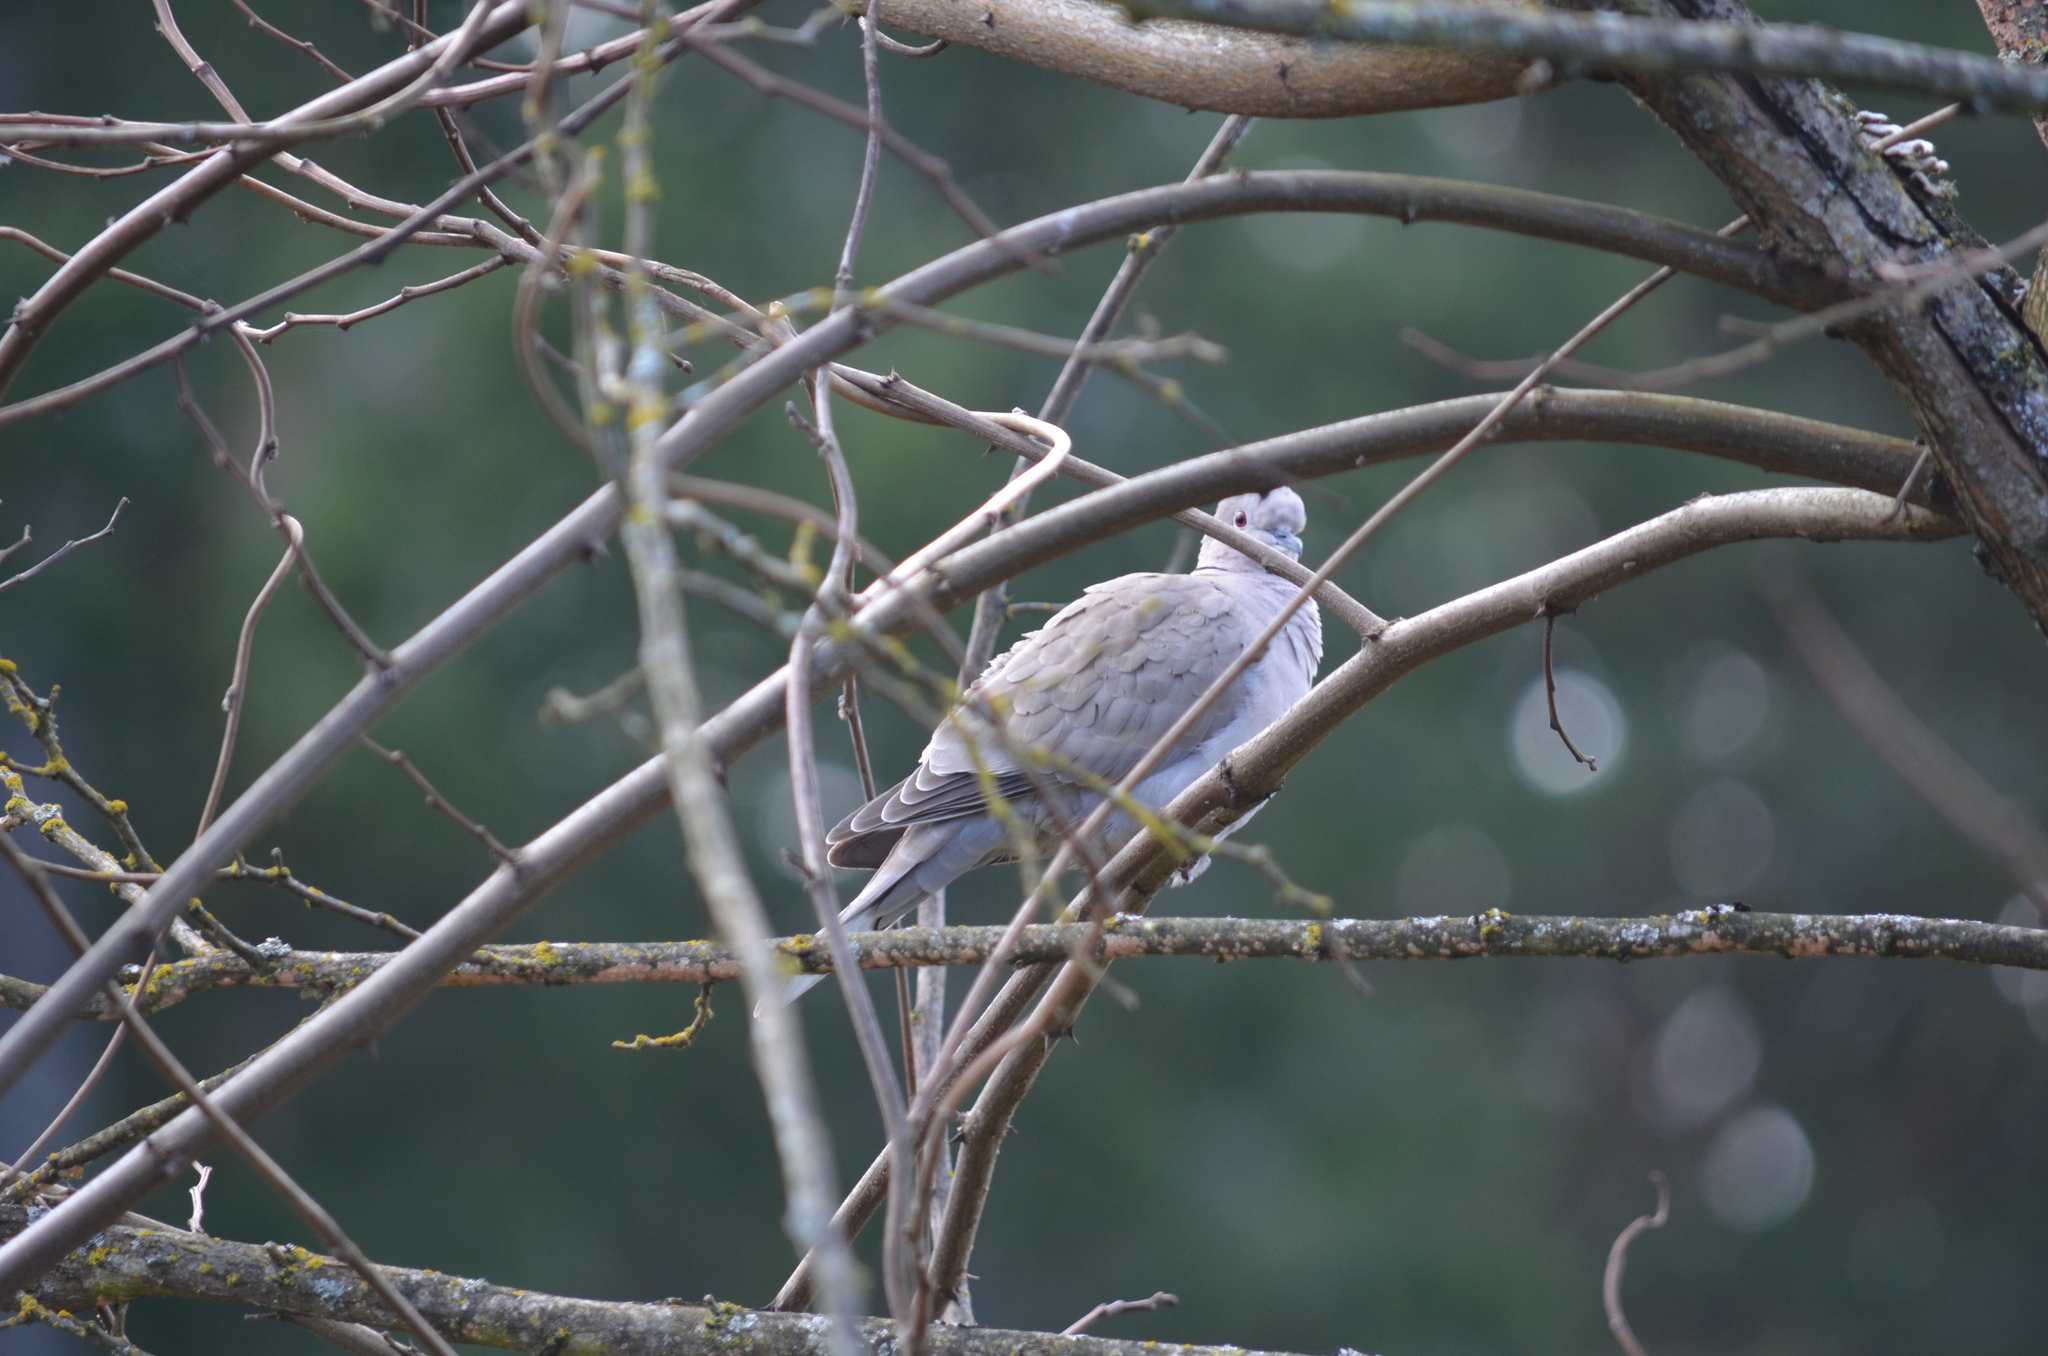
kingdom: Animalia
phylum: Chordata
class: Aves
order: Columbiformes
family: Columbidae
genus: Streptopelia
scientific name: Streptopelia decaocto
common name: Eurasian collared dove
